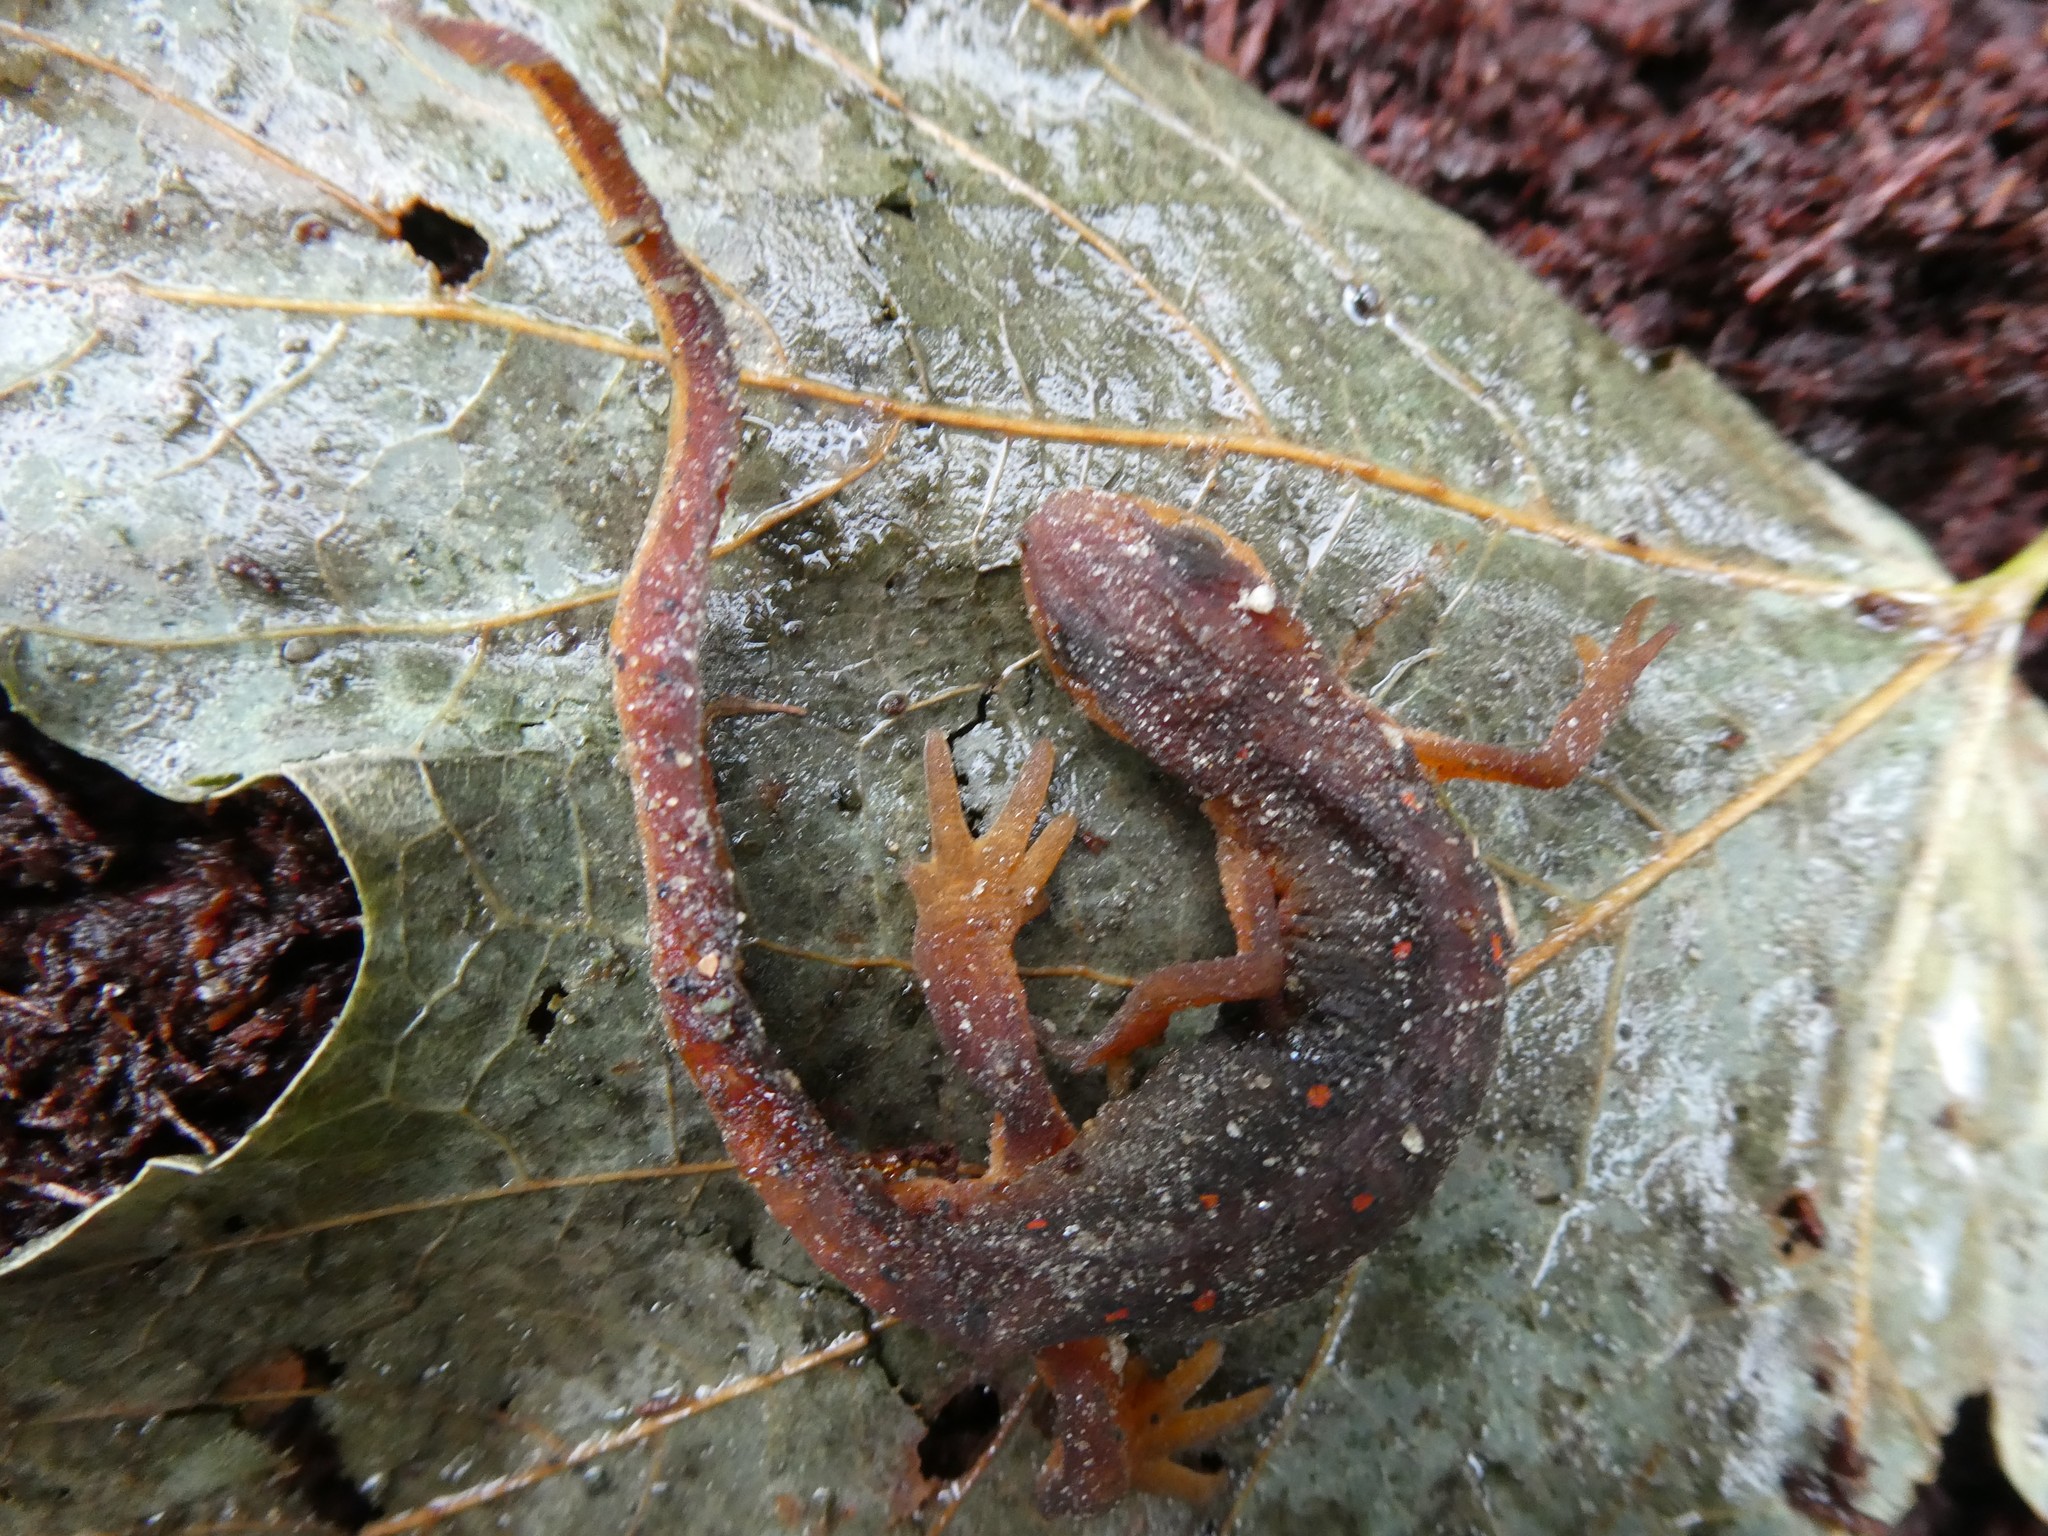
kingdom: Animalia
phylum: Chordata
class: Amphibia
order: Caudata
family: Salamandridae
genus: Notophthalmus
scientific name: Notophthalmus viridescens
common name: Eastern newt
